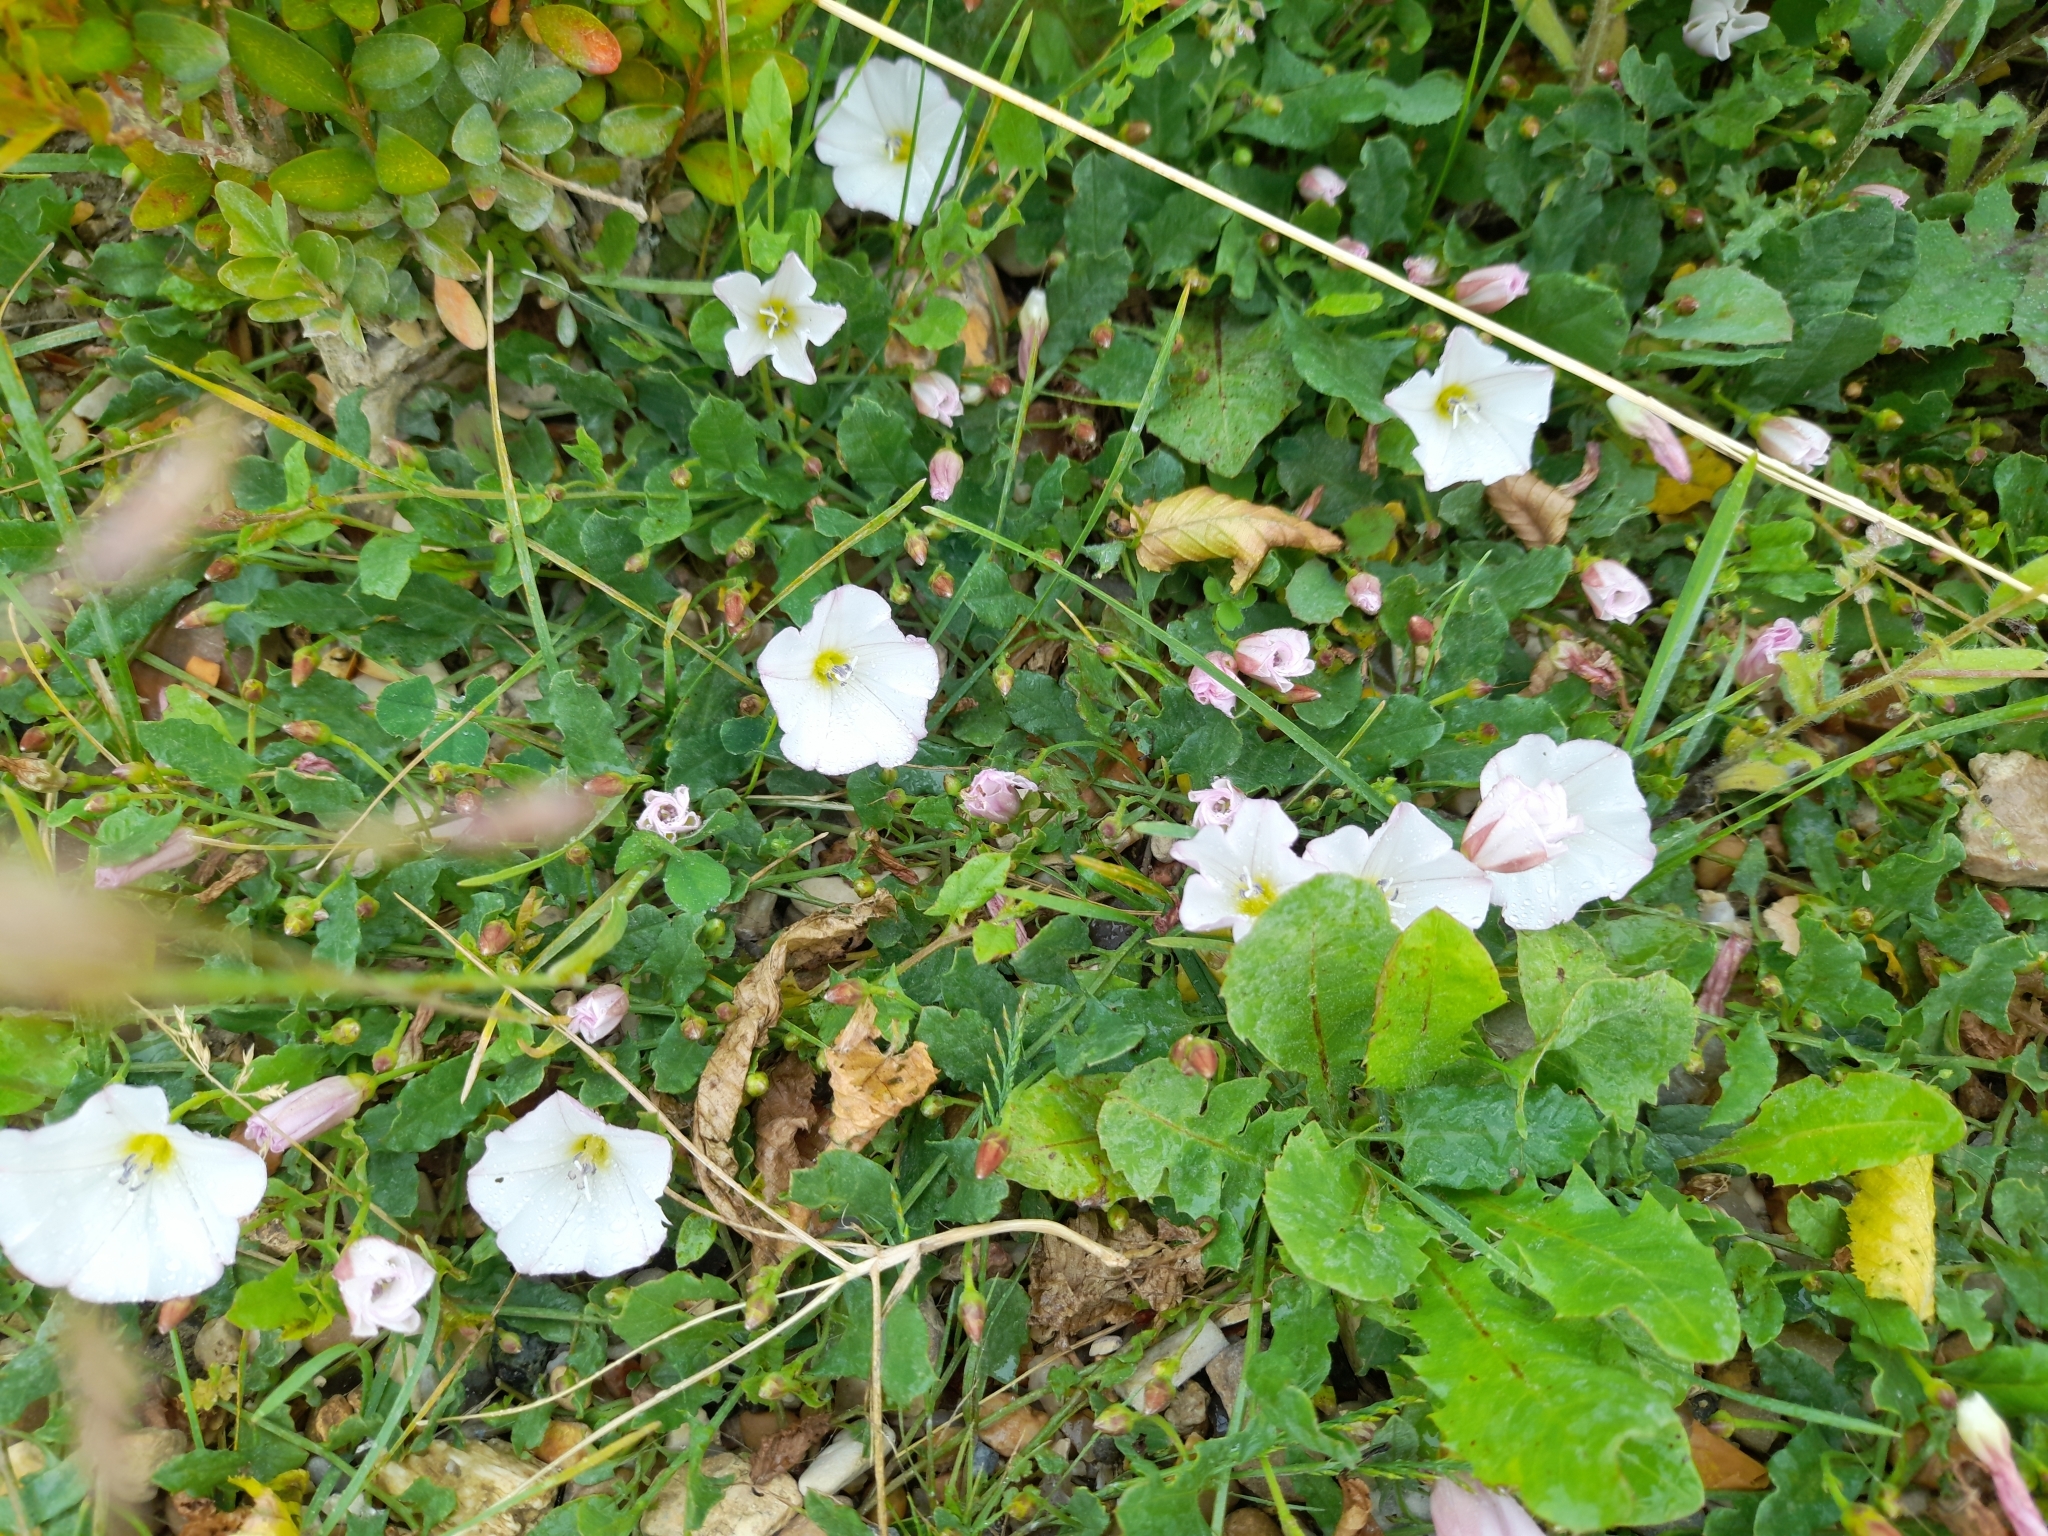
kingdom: Plantae
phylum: Tracheophyta
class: Magnoliopsida
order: Solanales
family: Convolvulaceae
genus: Convolvulus
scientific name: Convolvulus arvensis
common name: Field bindweed
